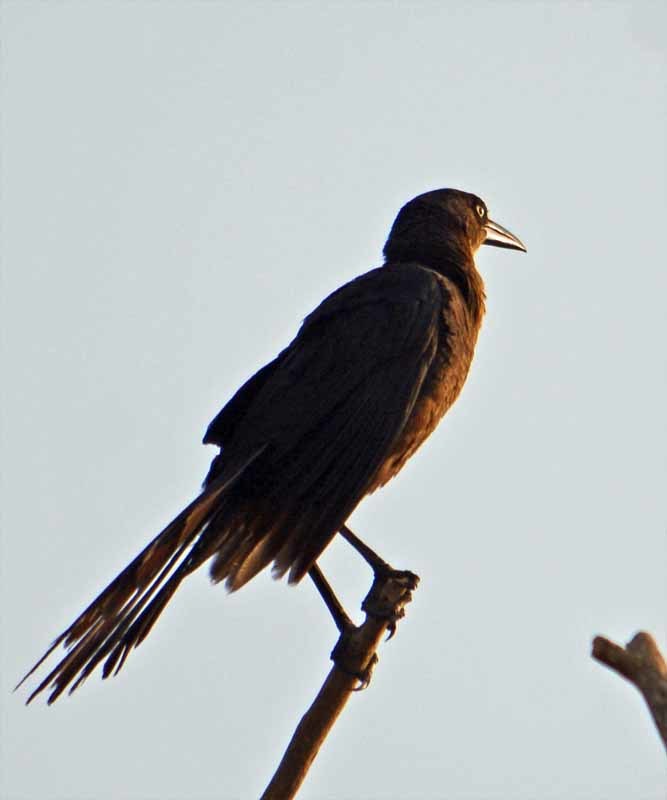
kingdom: Animalia
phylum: Chordata
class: Aves
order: Passeriformes
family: Icteridae
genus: Quiscalus
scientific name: Quiscalus mexicanus
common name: Great-tailed grackle
